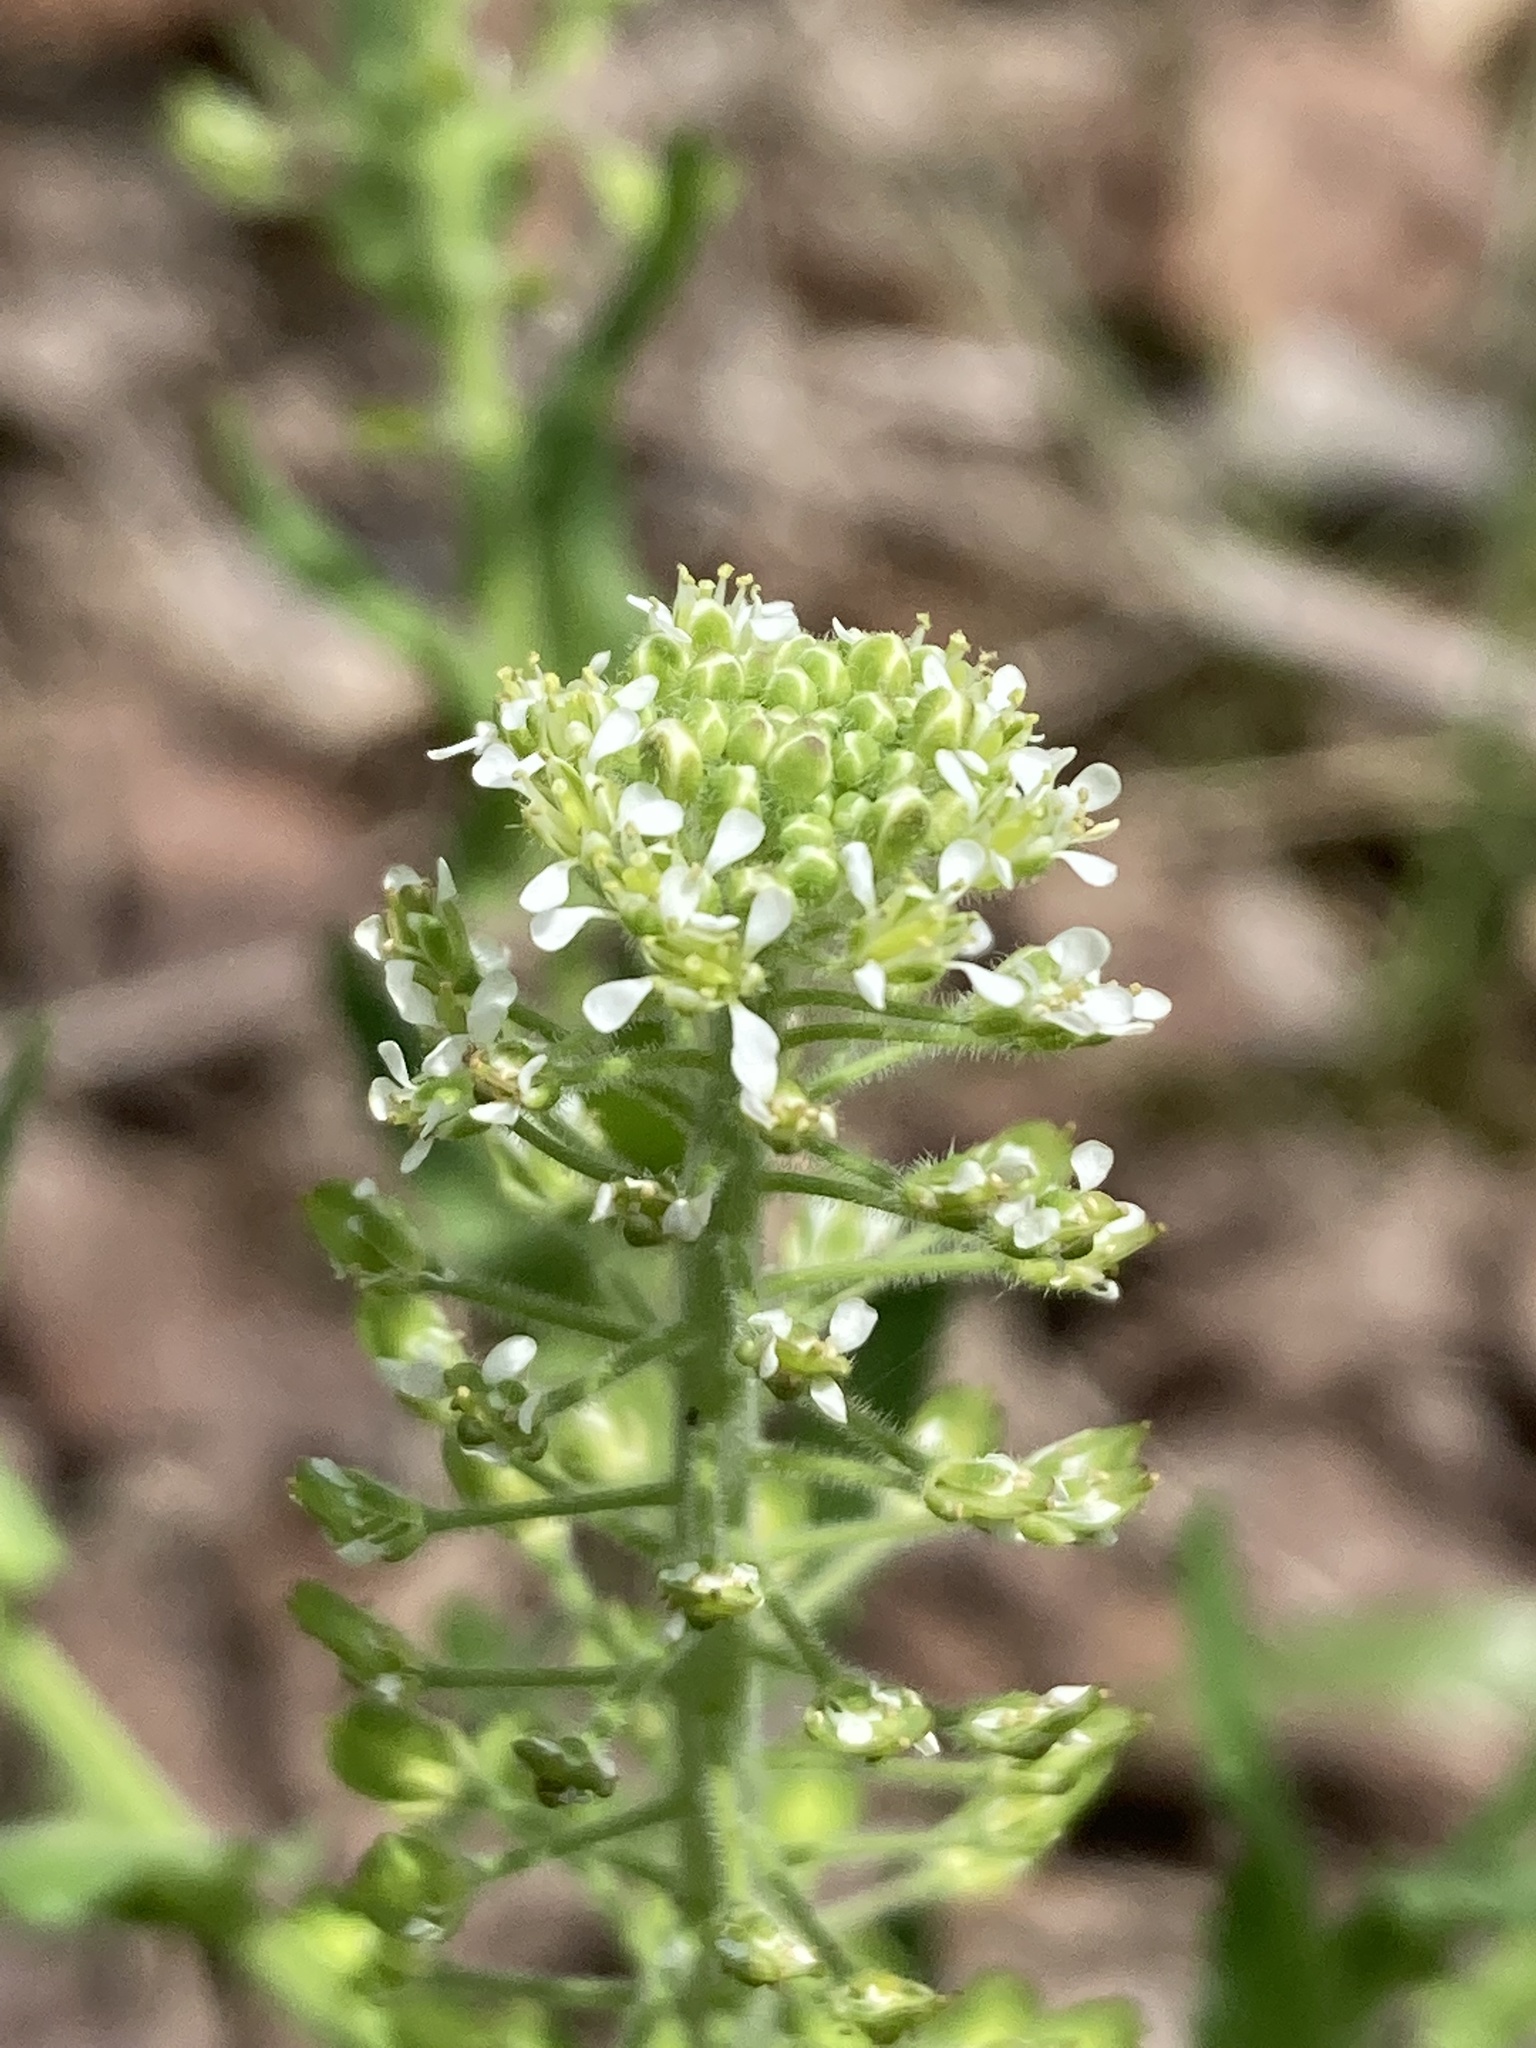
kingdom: Plantae
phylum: Tracheophyta
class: Magnoliopsida
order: Brassicales
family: Brassicaceae
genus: Lepidium
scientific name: Lepidium campestre
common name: Field pepperwort
